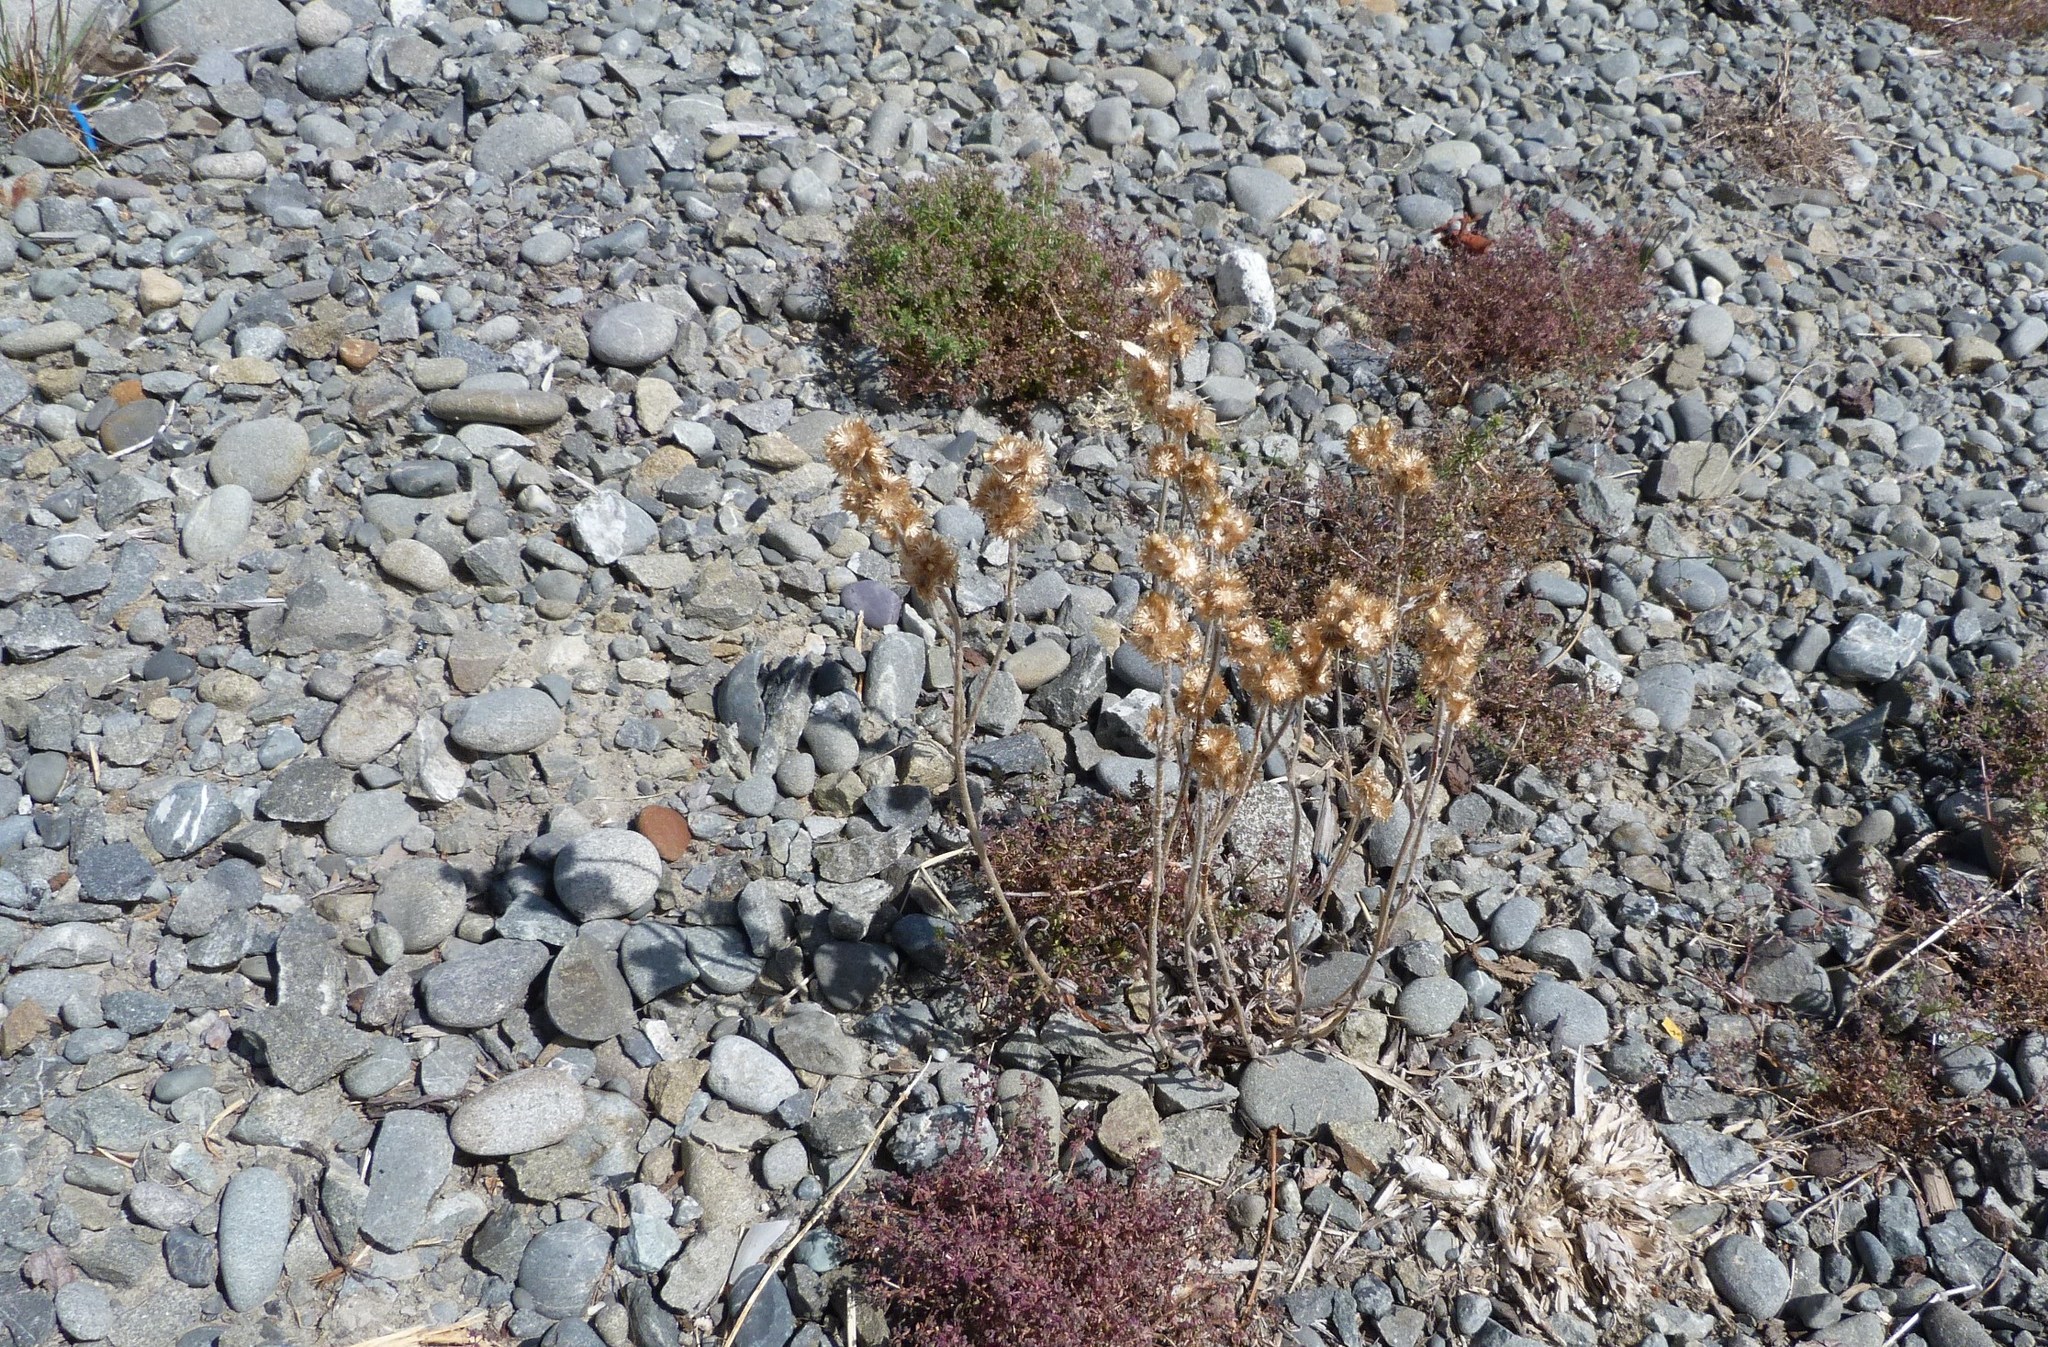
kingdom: Plantae
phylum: Tracheophyta
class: Magnoliopsida
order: Asterales
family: Asteraceae
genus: Helichrysum
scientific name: Helichrysum luteoalbum
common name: Daisy
